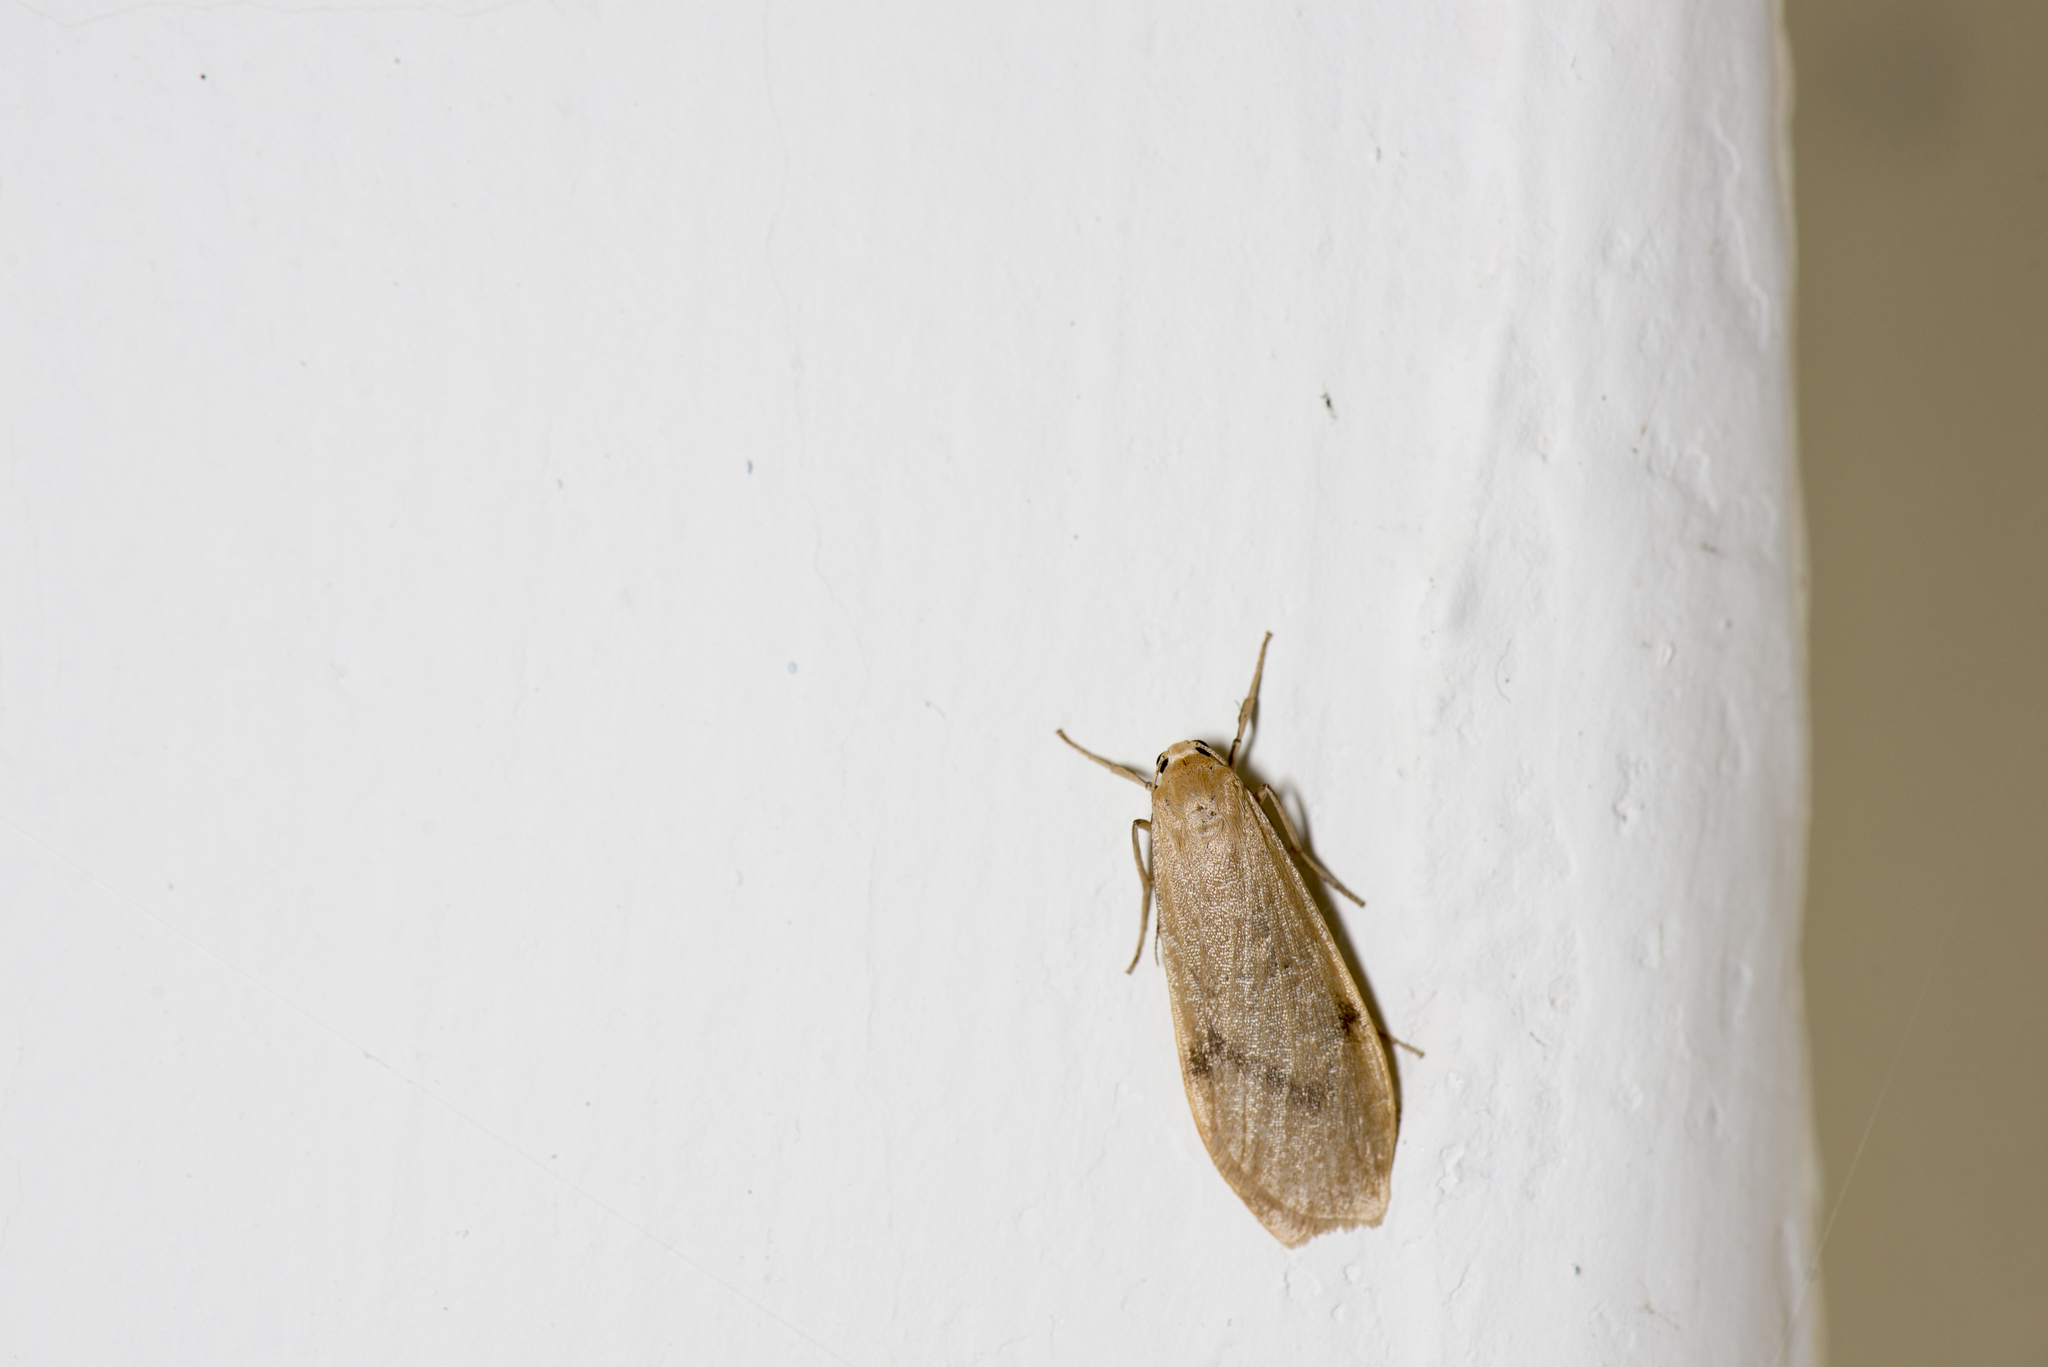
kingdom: Animalia
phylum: Arthropoda
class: Insecta
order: Lepidoptera
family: Erebidae
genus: Eilema
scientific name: Eilema rubrescens
